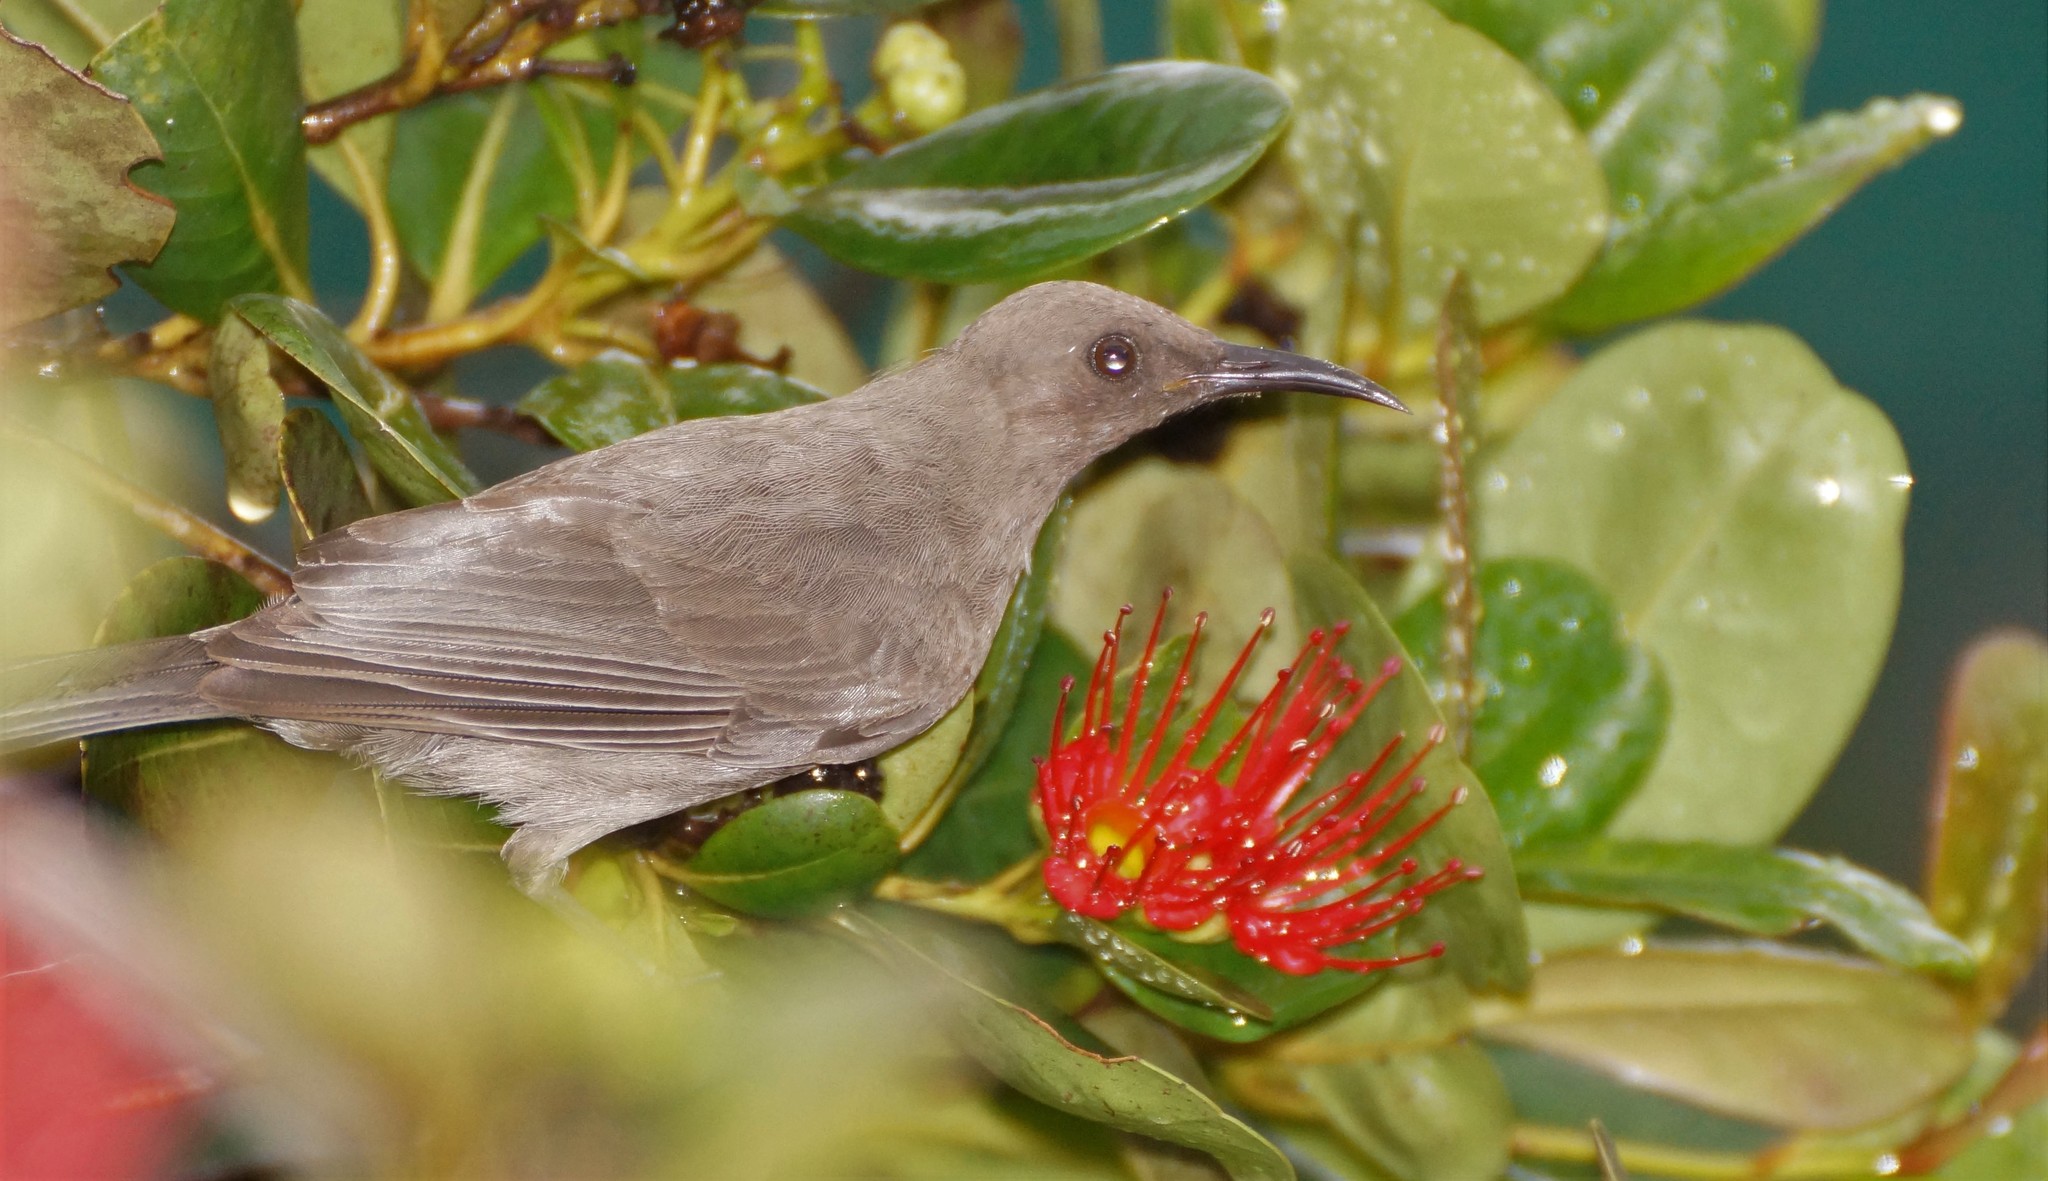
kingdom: Animalia
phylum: Chordata
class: Aves
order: Passeriformes
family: Meliphagidae
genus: Myzomela
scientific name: Myzomela obscura
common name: Dusky myzomela
